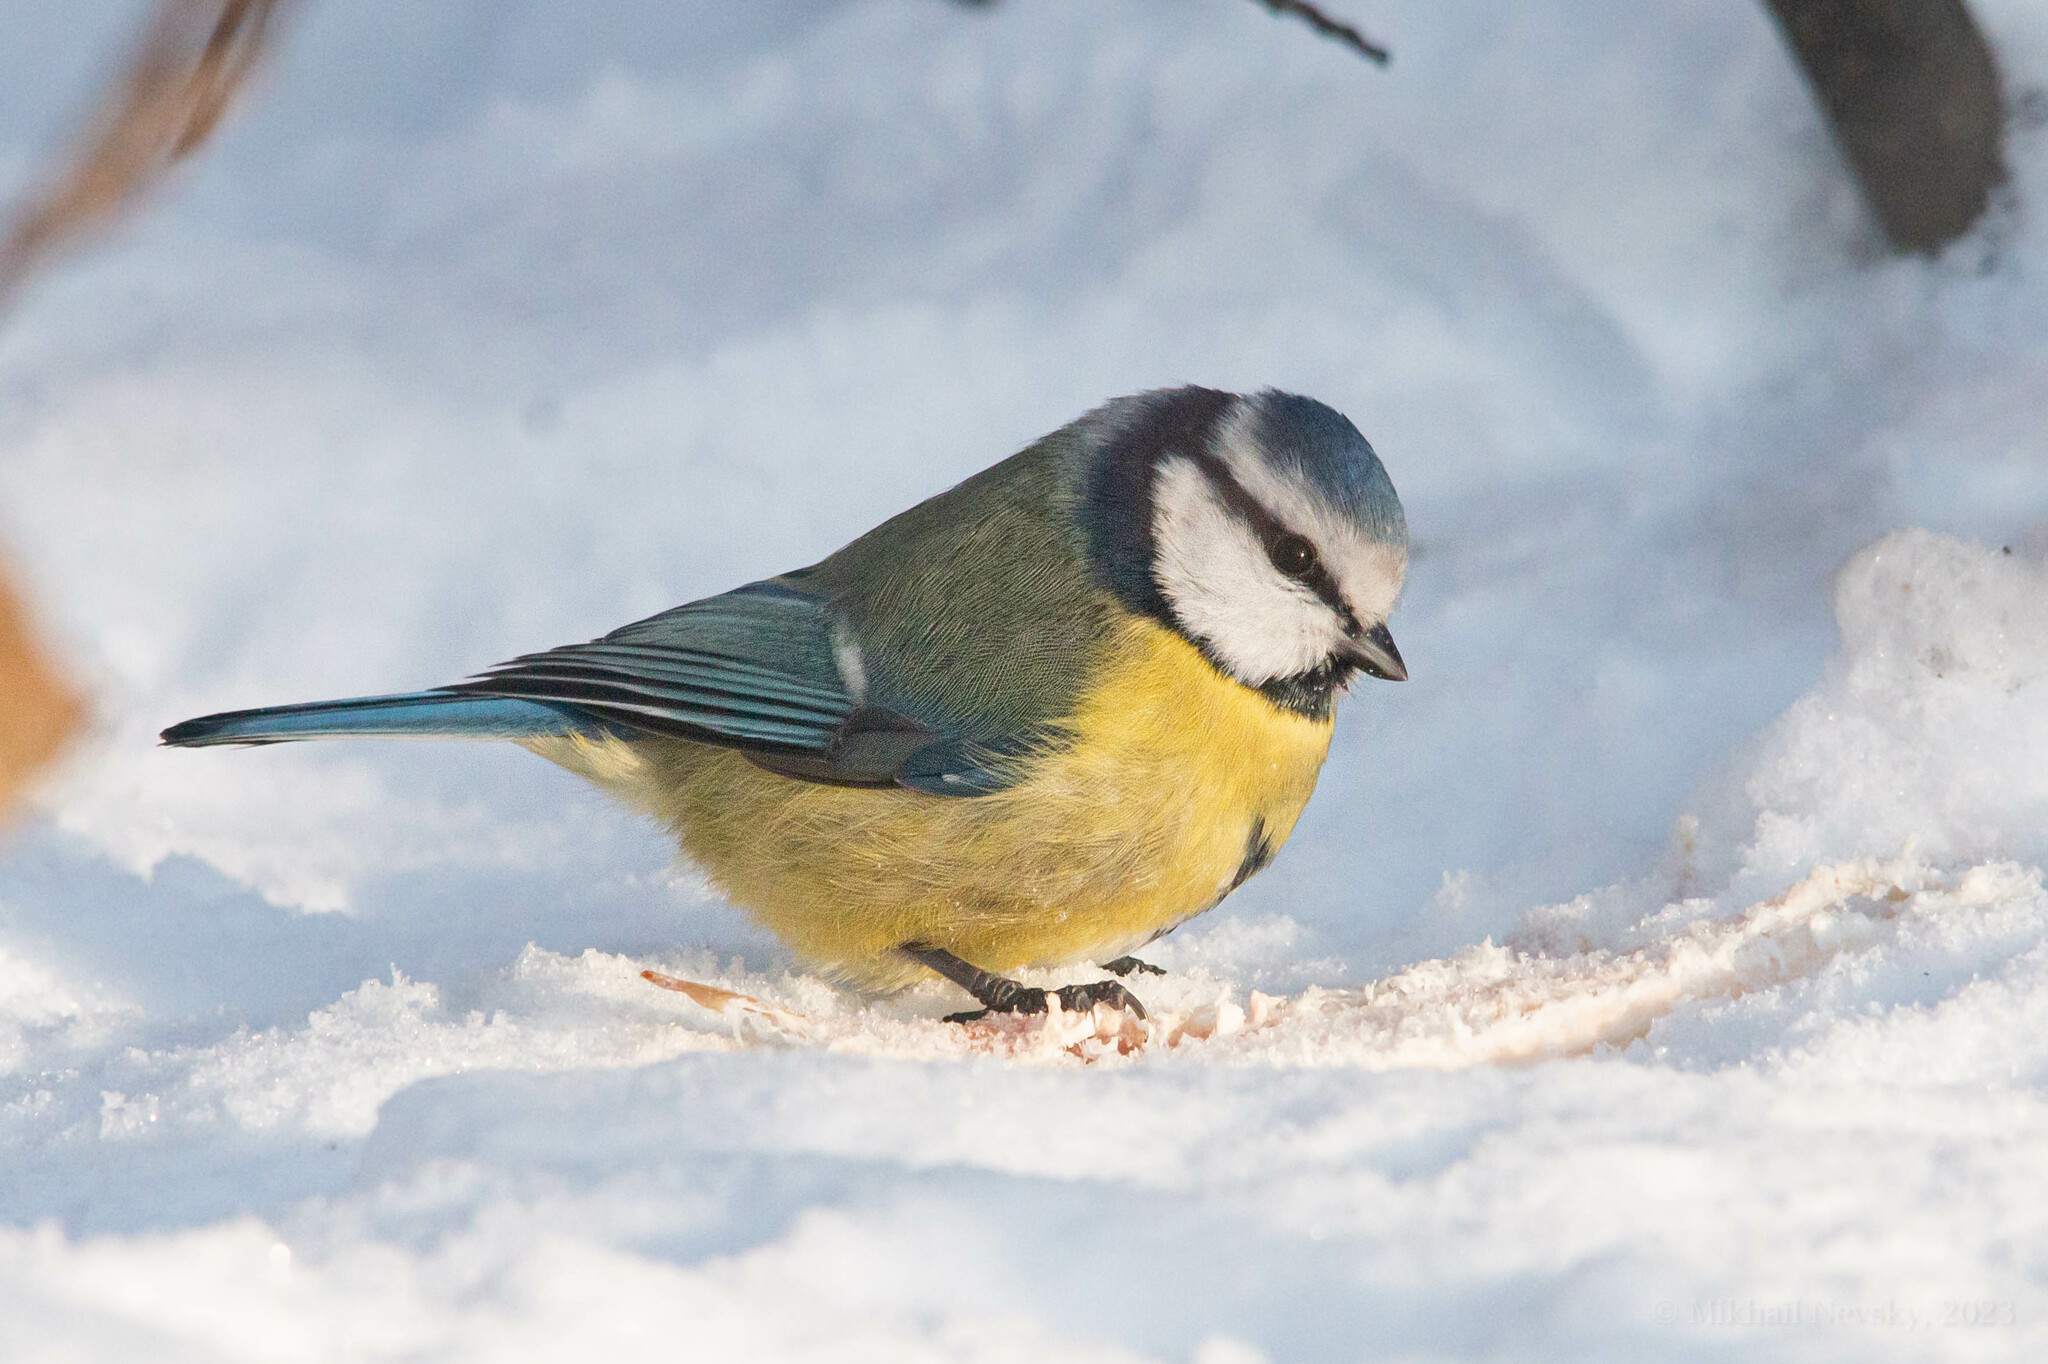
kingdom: Animalia
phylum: Chordata
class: Aves
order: Passeriformes
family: Paridae
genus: Cyanistes
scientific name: Cyanistes caeruleus
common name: Eurasian blue tit
